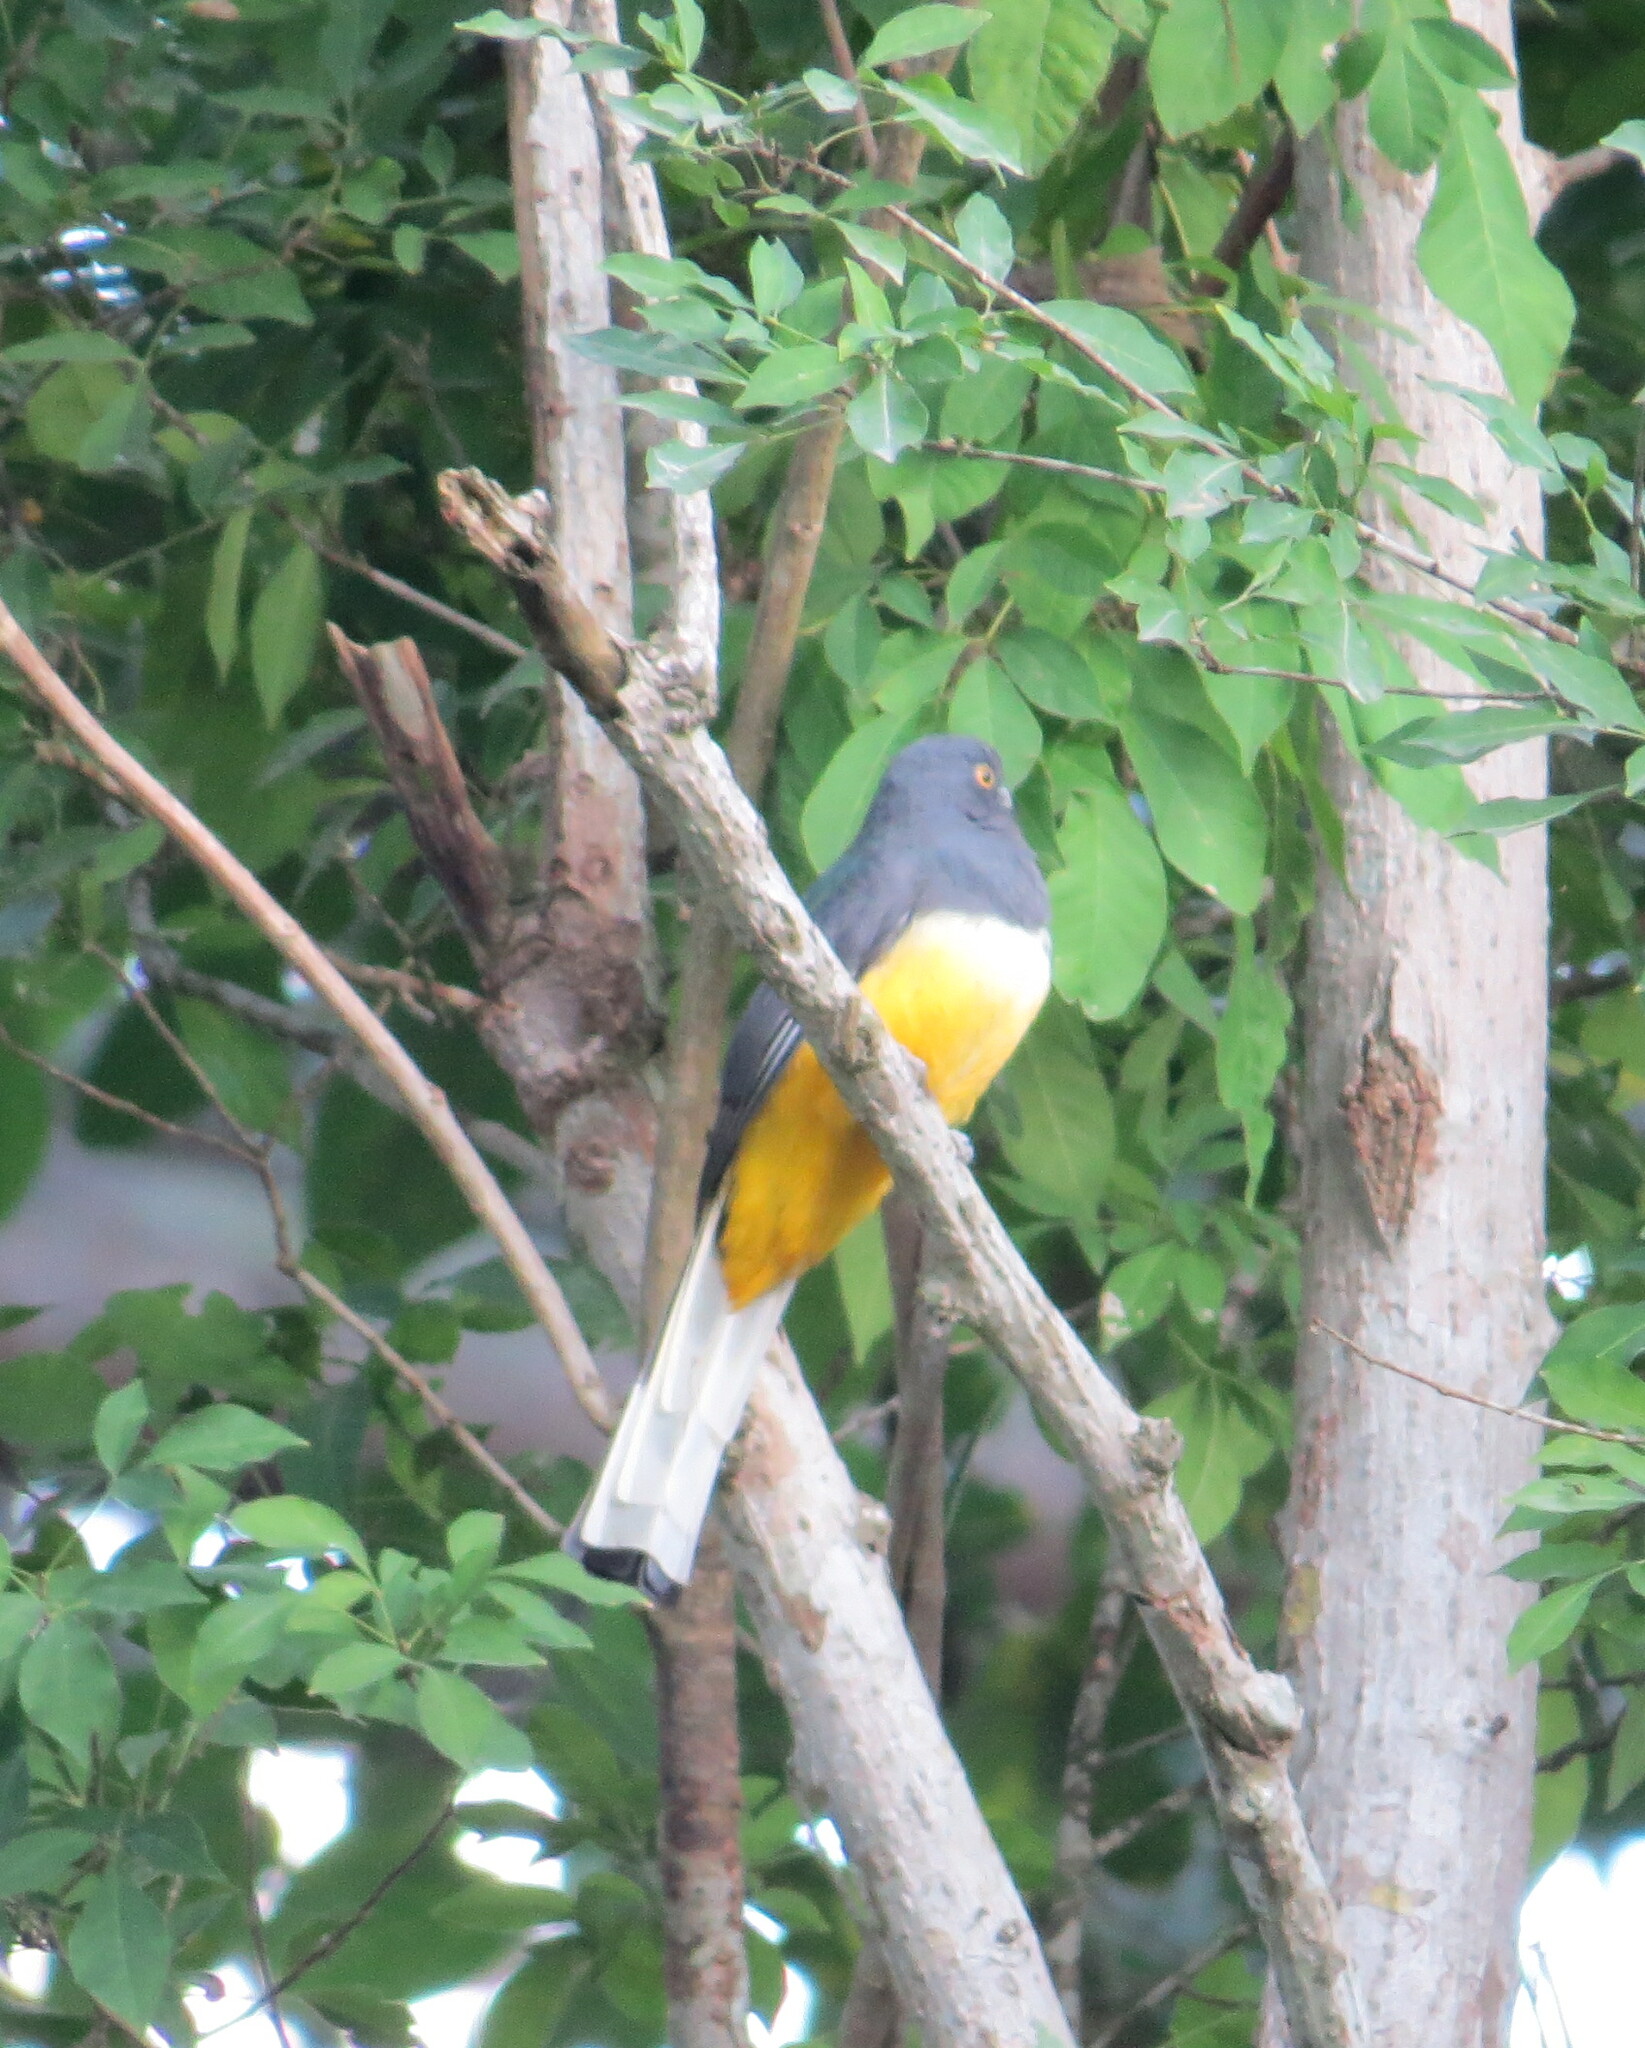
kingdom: Animalia
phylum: Chordata
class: Aves
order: Trogoniformes
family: Trogonidae
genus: Trogon
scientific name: Trogon citreolus
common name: Citreoline trogon
